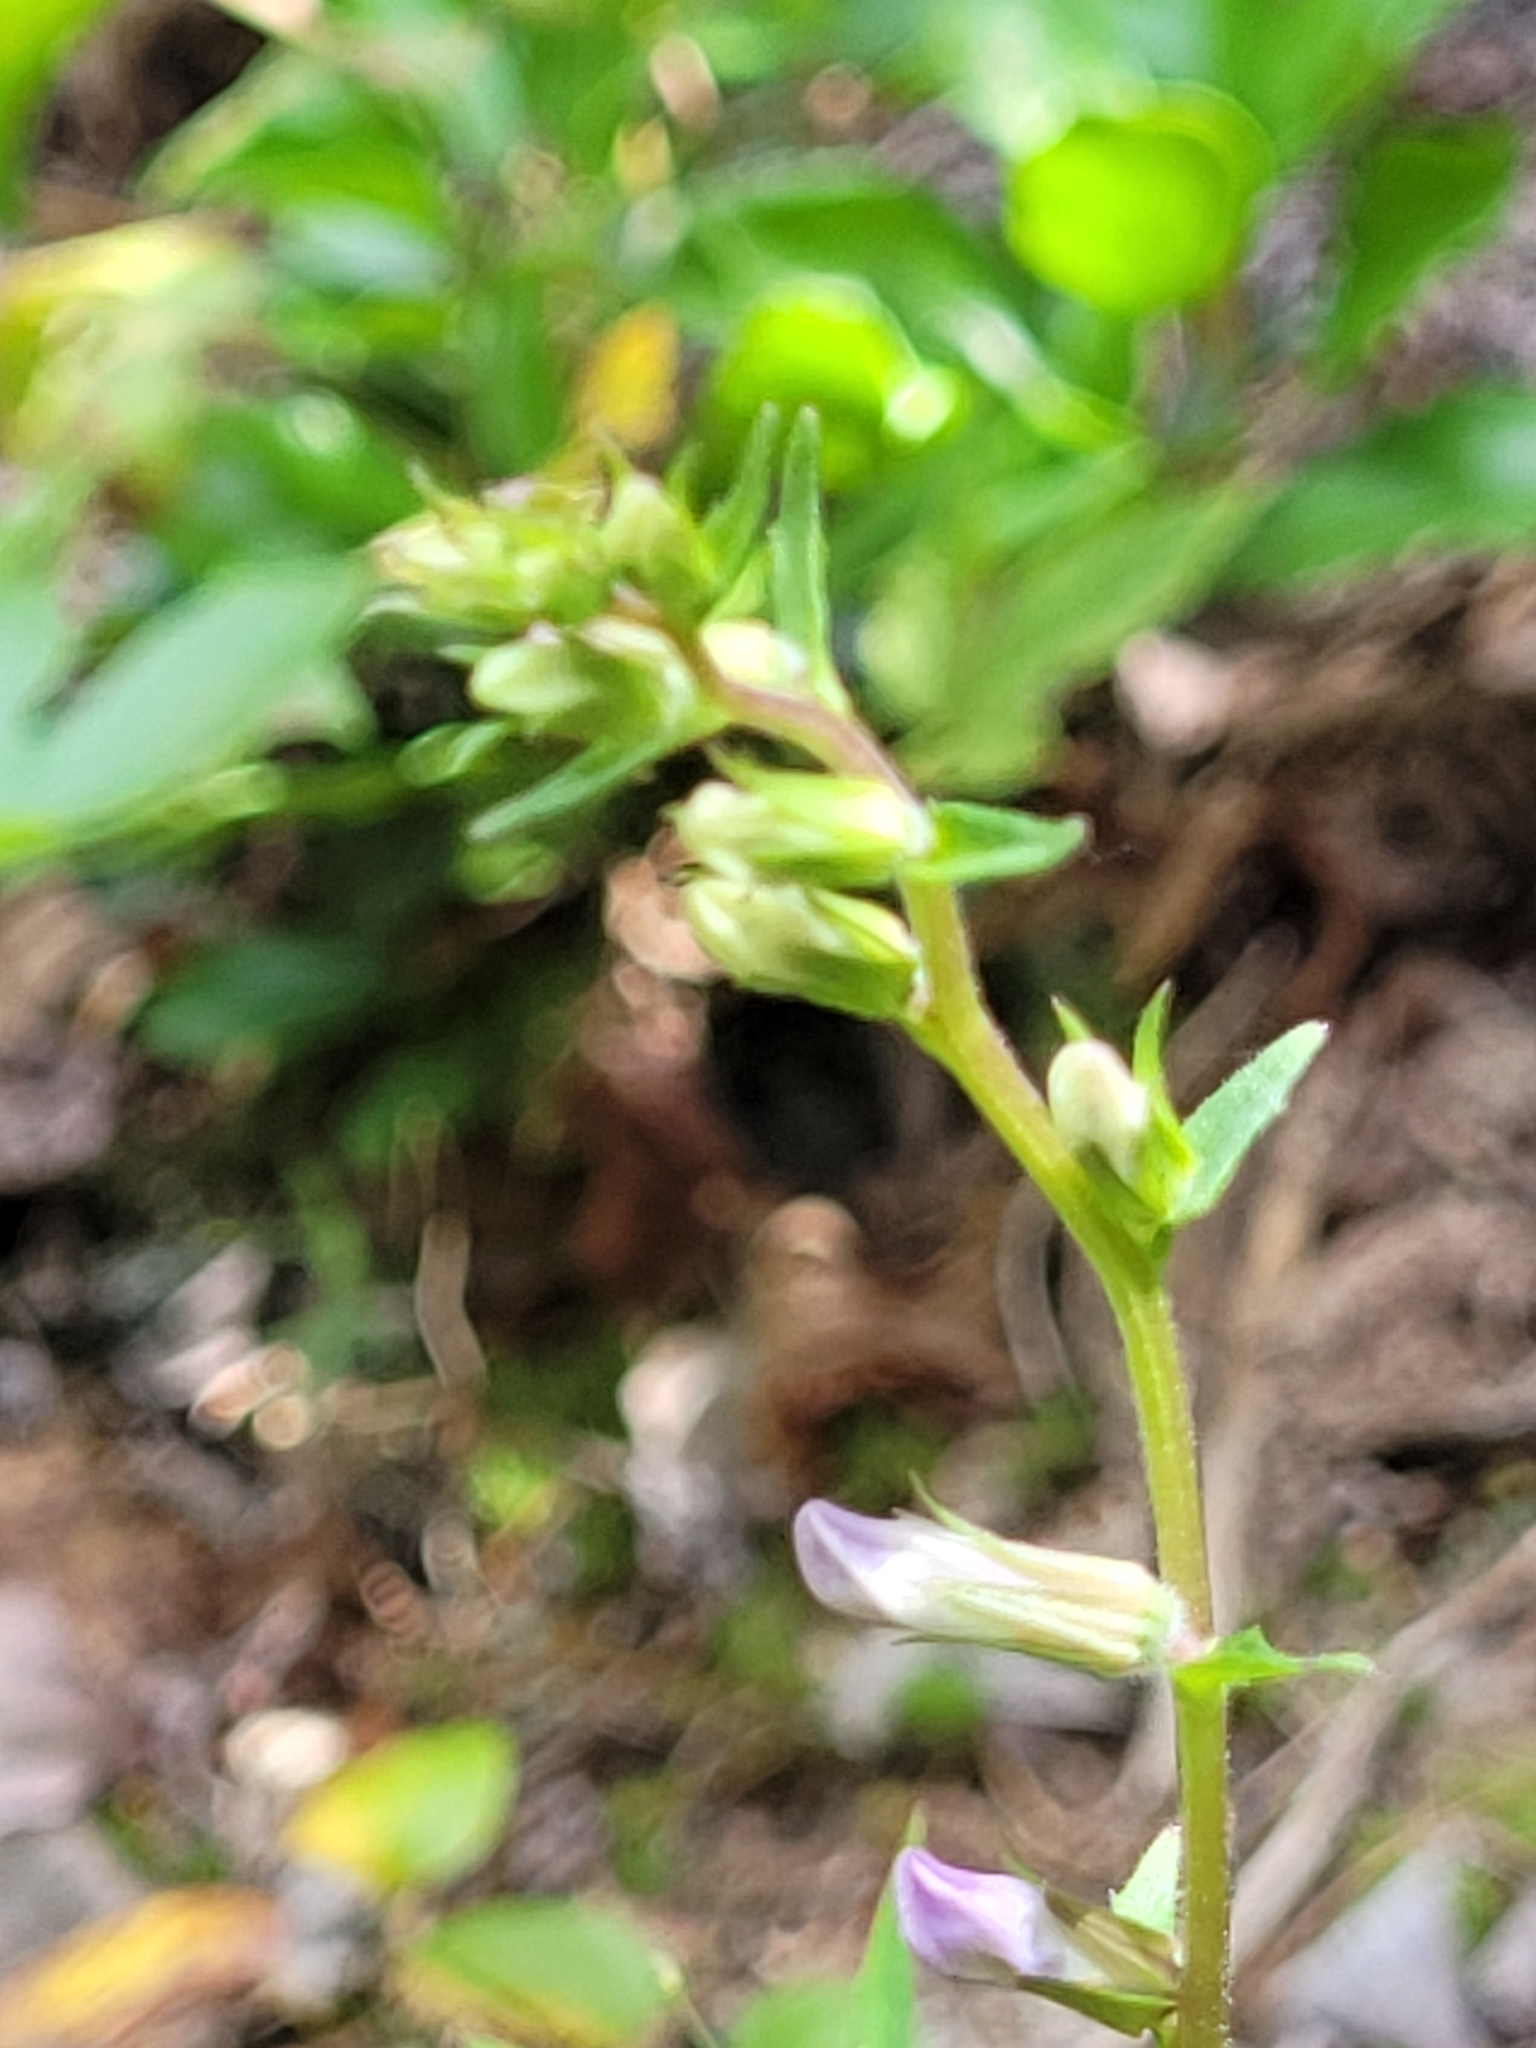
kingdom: Plantae
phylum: Tracheophyta
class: Magnoliopsida
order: Asterales
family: Campanulaceae
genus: Lobelia
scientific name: Lobelia puberula
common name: Purple dewdrop
